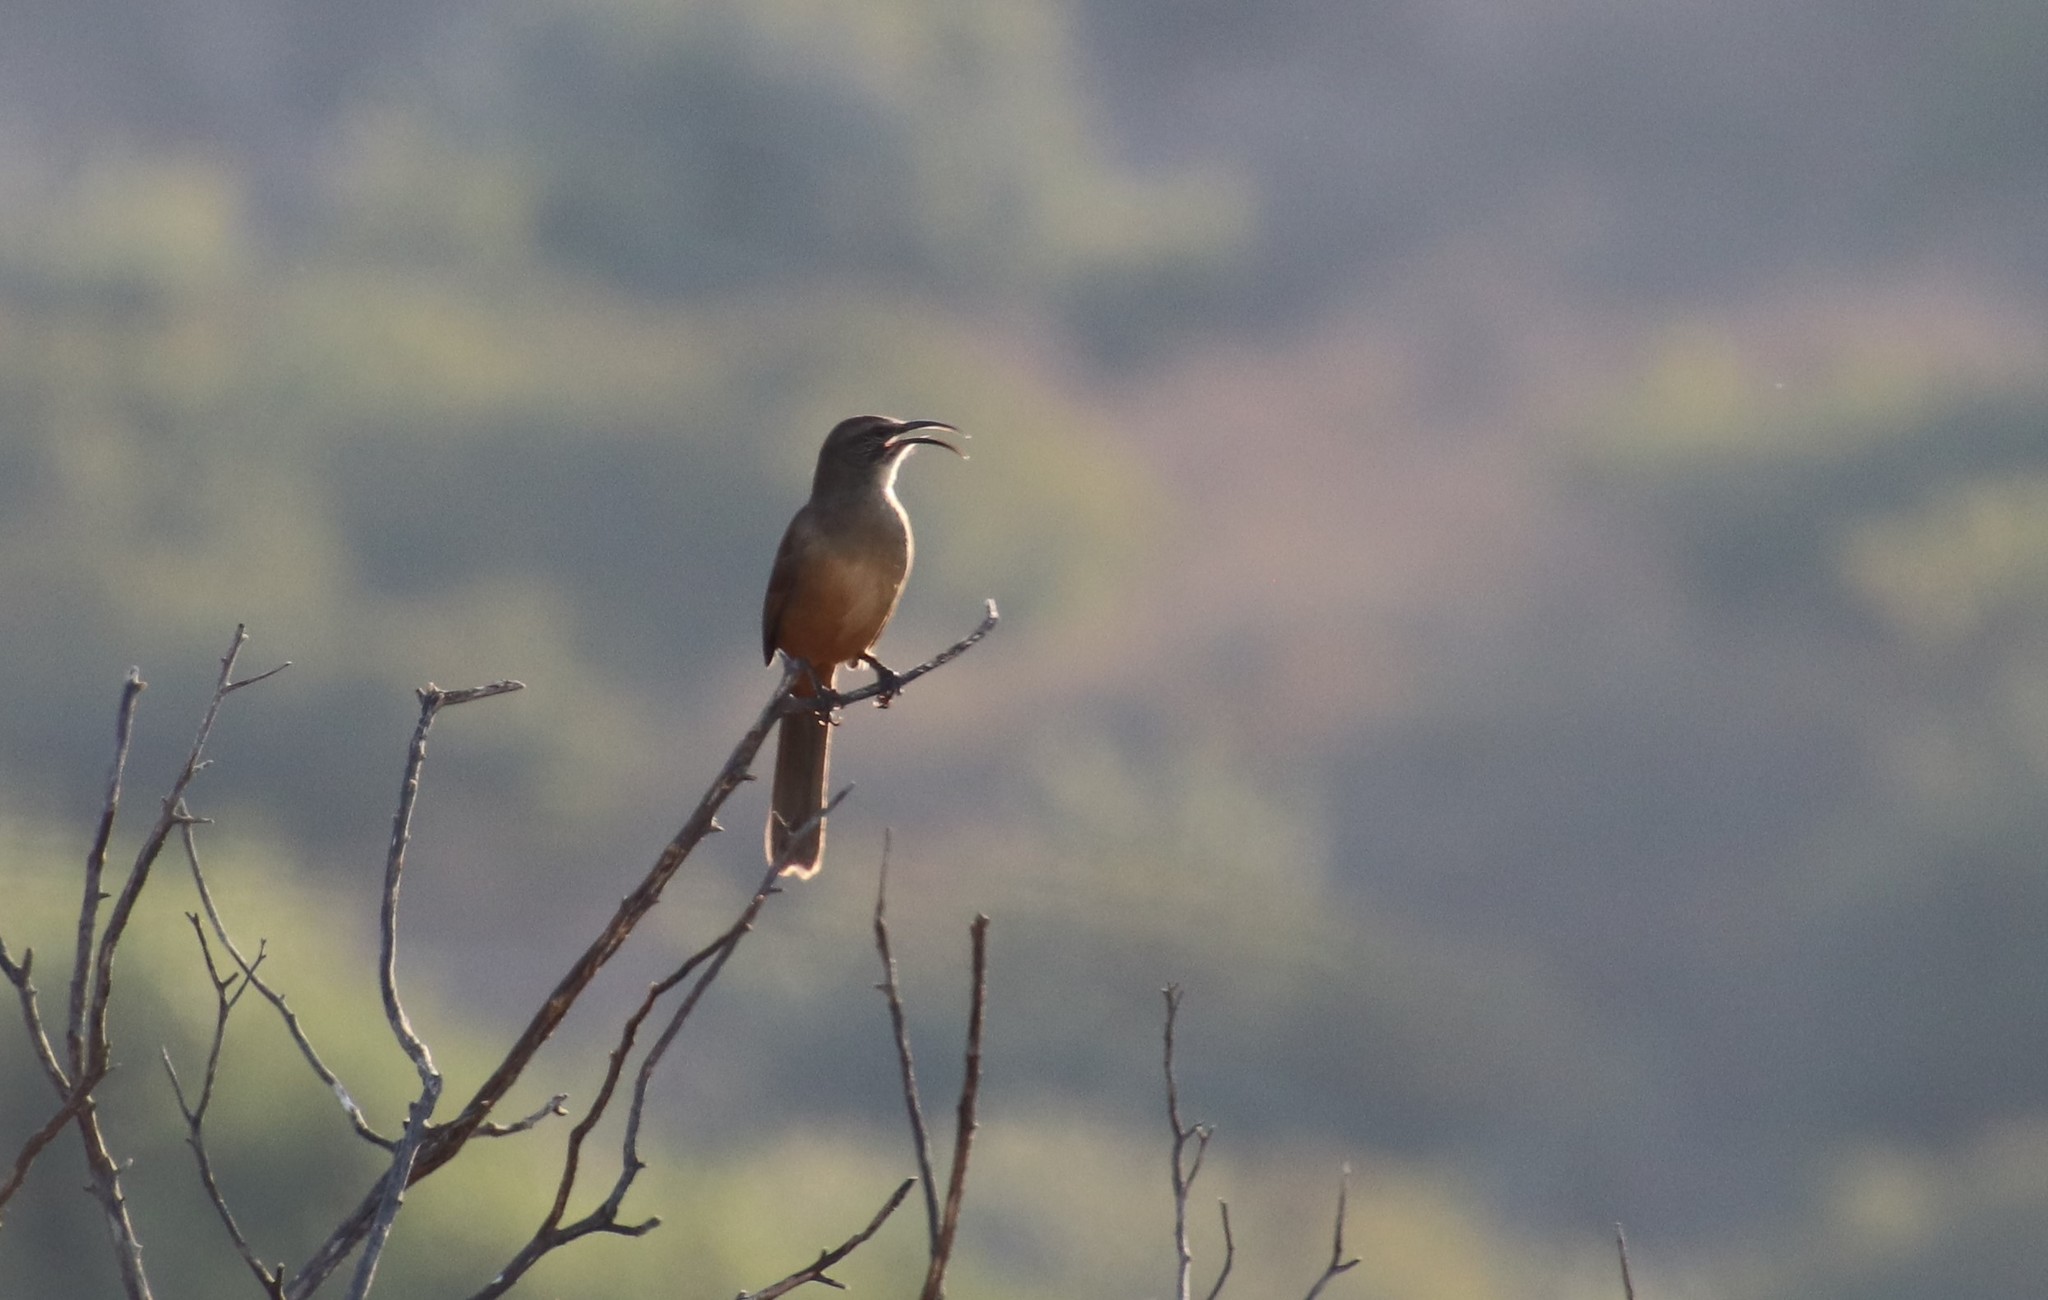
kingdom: Animalia
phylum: Chordata
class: Aves
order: Passeriformes
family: Mimidae
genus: Toxostoma
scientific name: Toxostoma redivivum
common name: California thrasher
